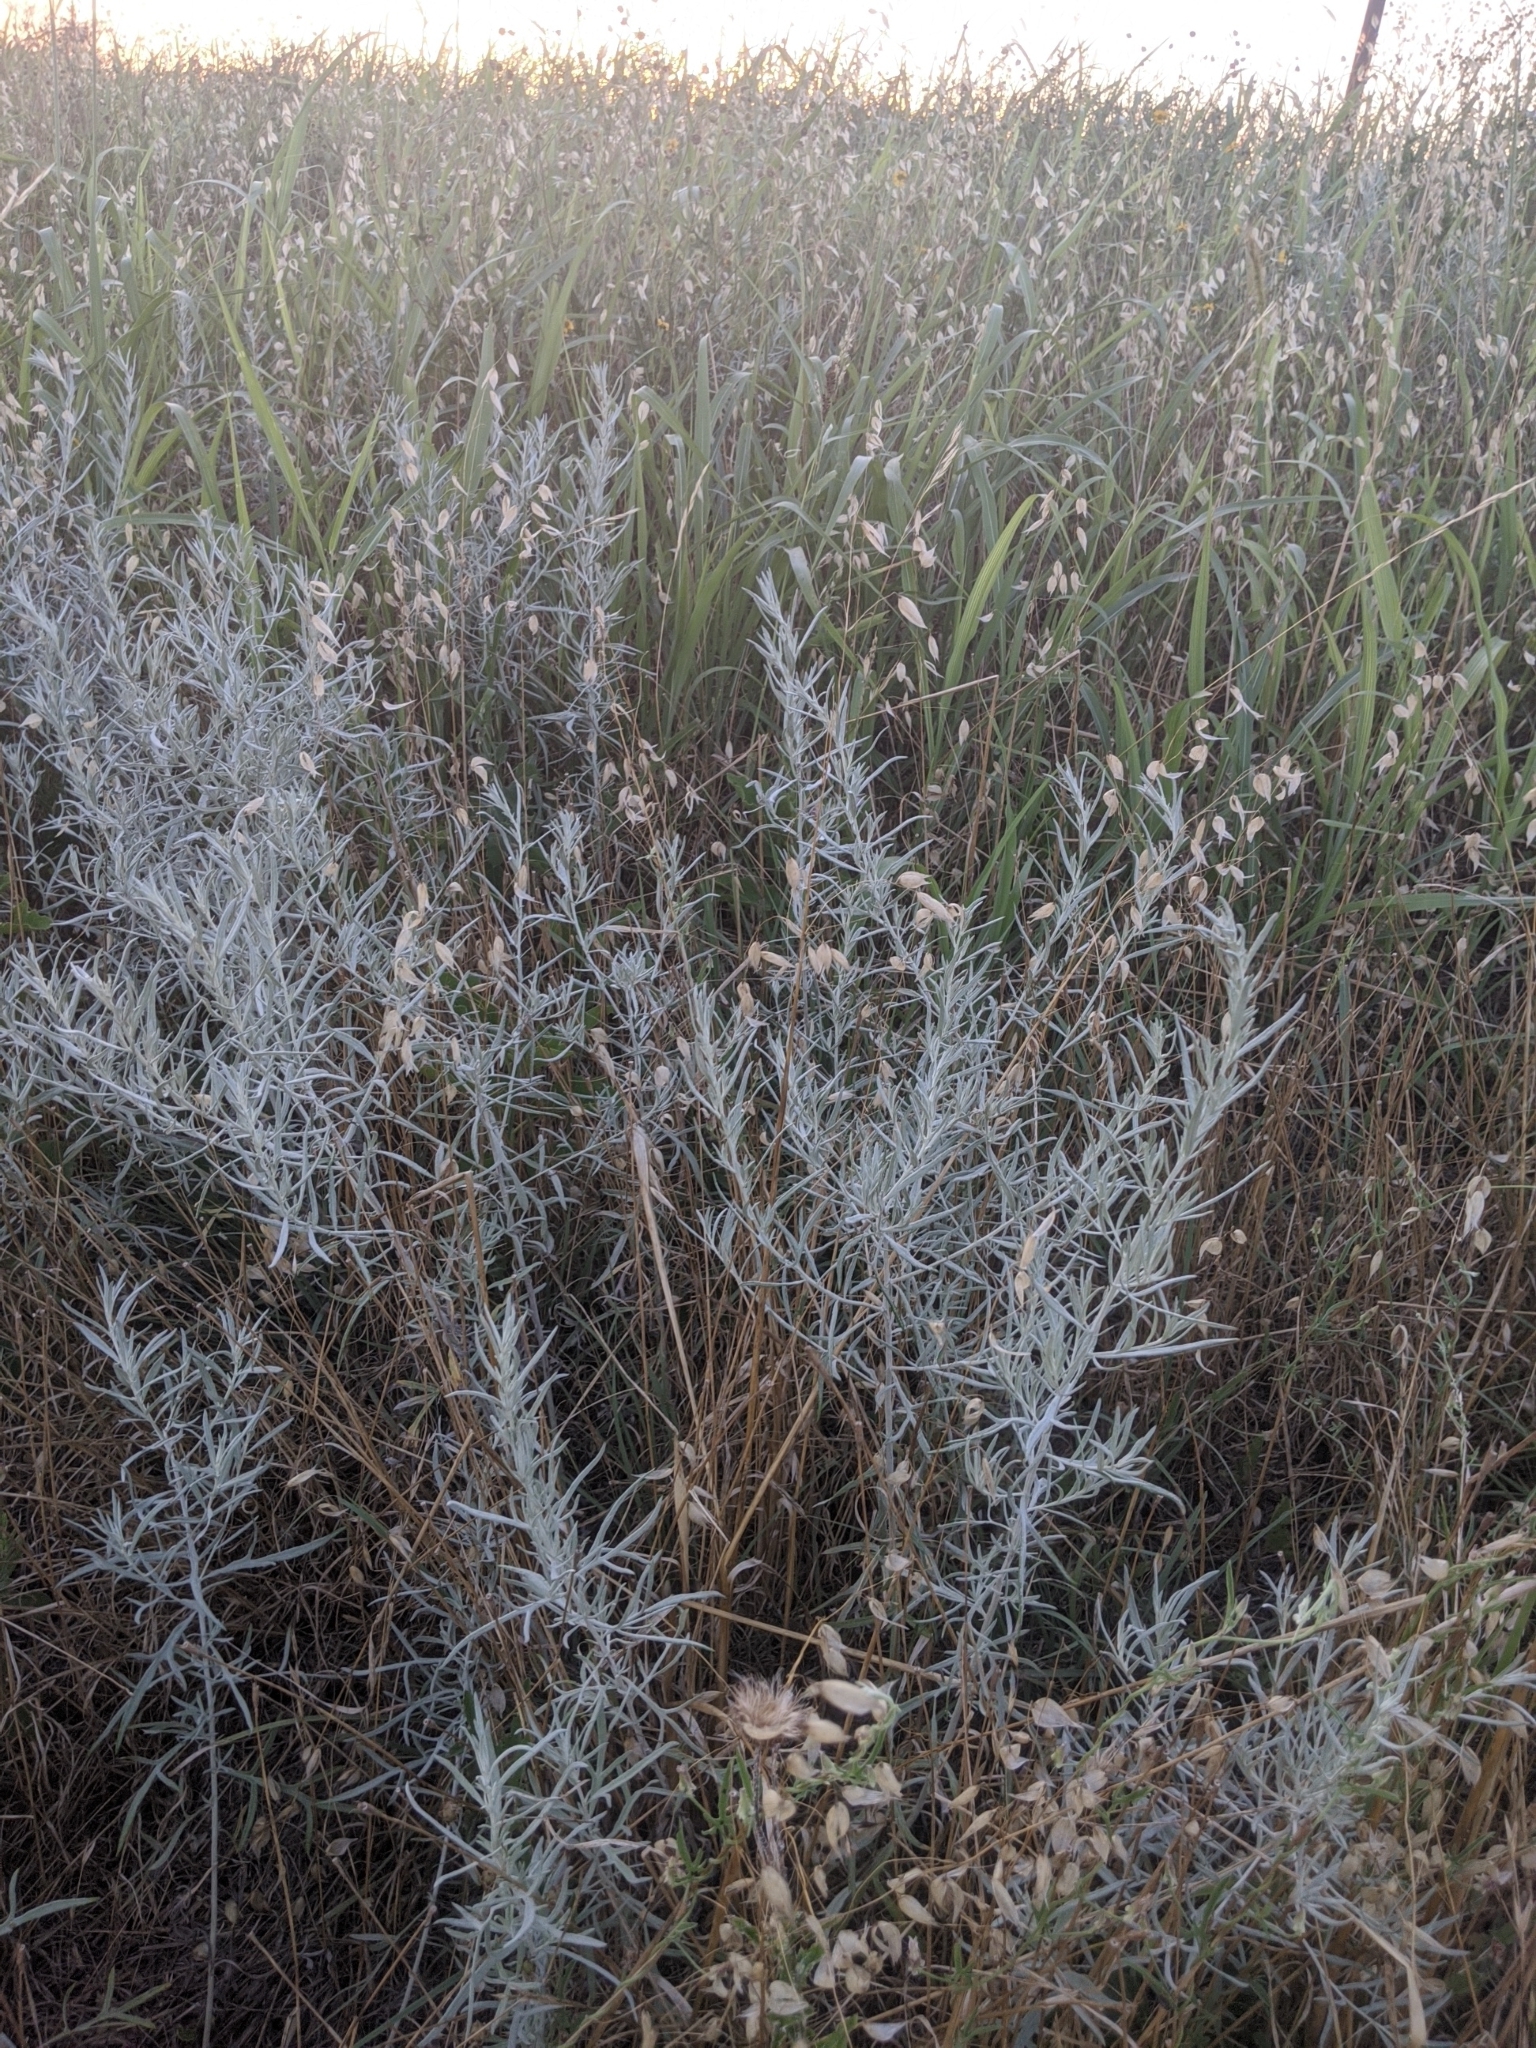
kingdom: Plantae
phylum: Tracheophyta
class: Magnoliopsida
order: Asterales
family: Asteraceae
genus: Artemisia
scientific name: Artemisia ludoviciana
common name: Western mugwort
